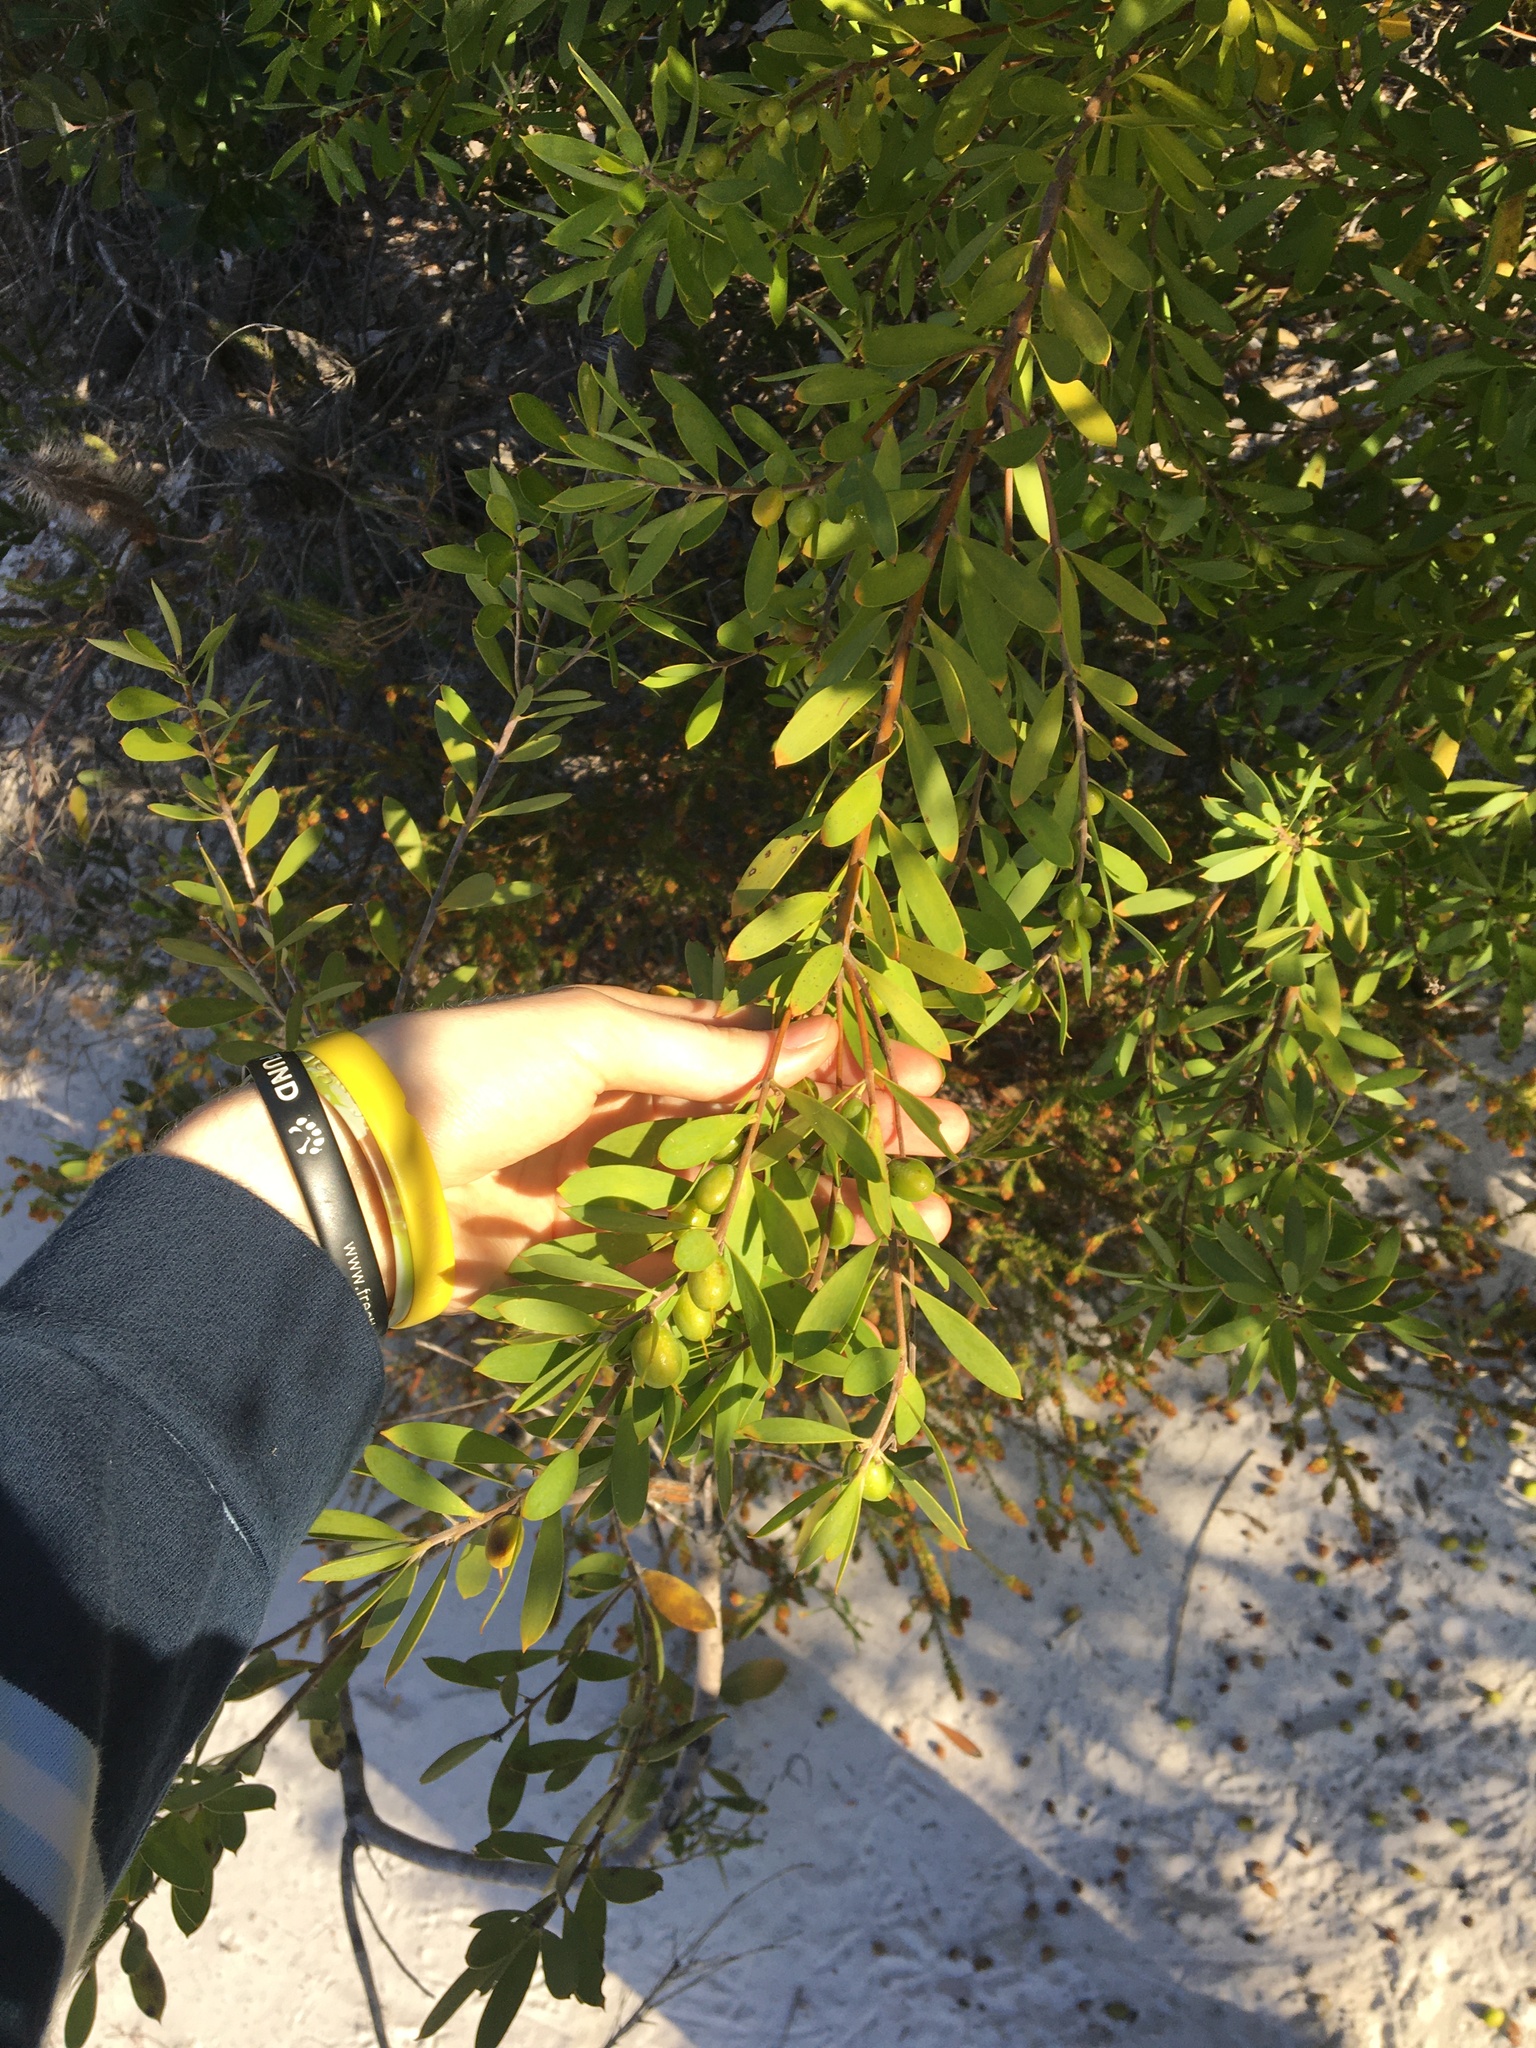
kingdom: Plantae
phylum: Tracheophyta
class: Magnoliopsida
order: Proteales
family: Proteaceae
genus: Persoonia
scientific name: Persoonia lanceolata
